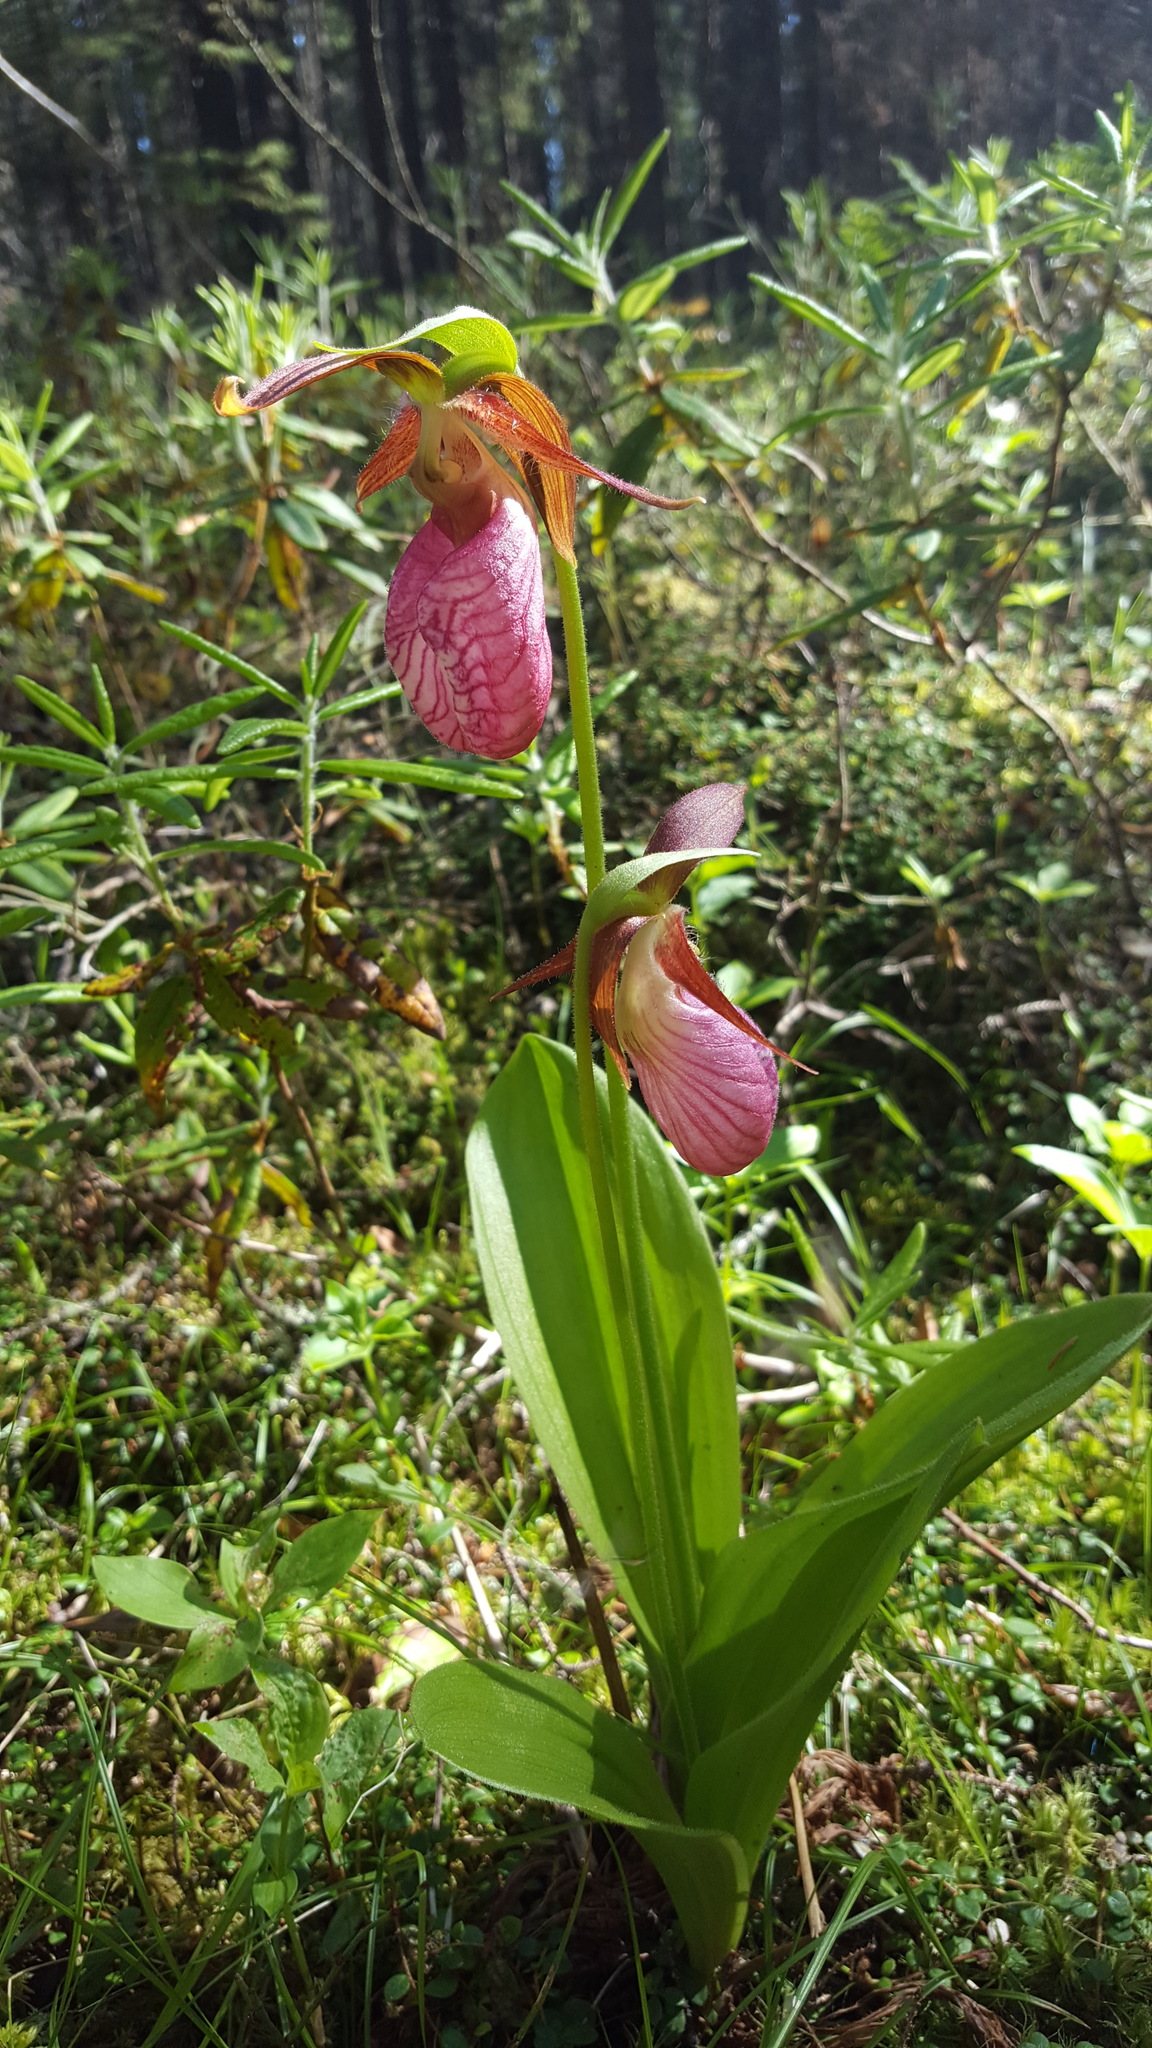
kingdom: Plantae
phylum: Tracheophyta
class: Liliopsida
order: Asparagales
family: Orchidaceae
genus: Cypripedium
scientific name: Cypripedium acaule
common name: Pink lady's-slipper
